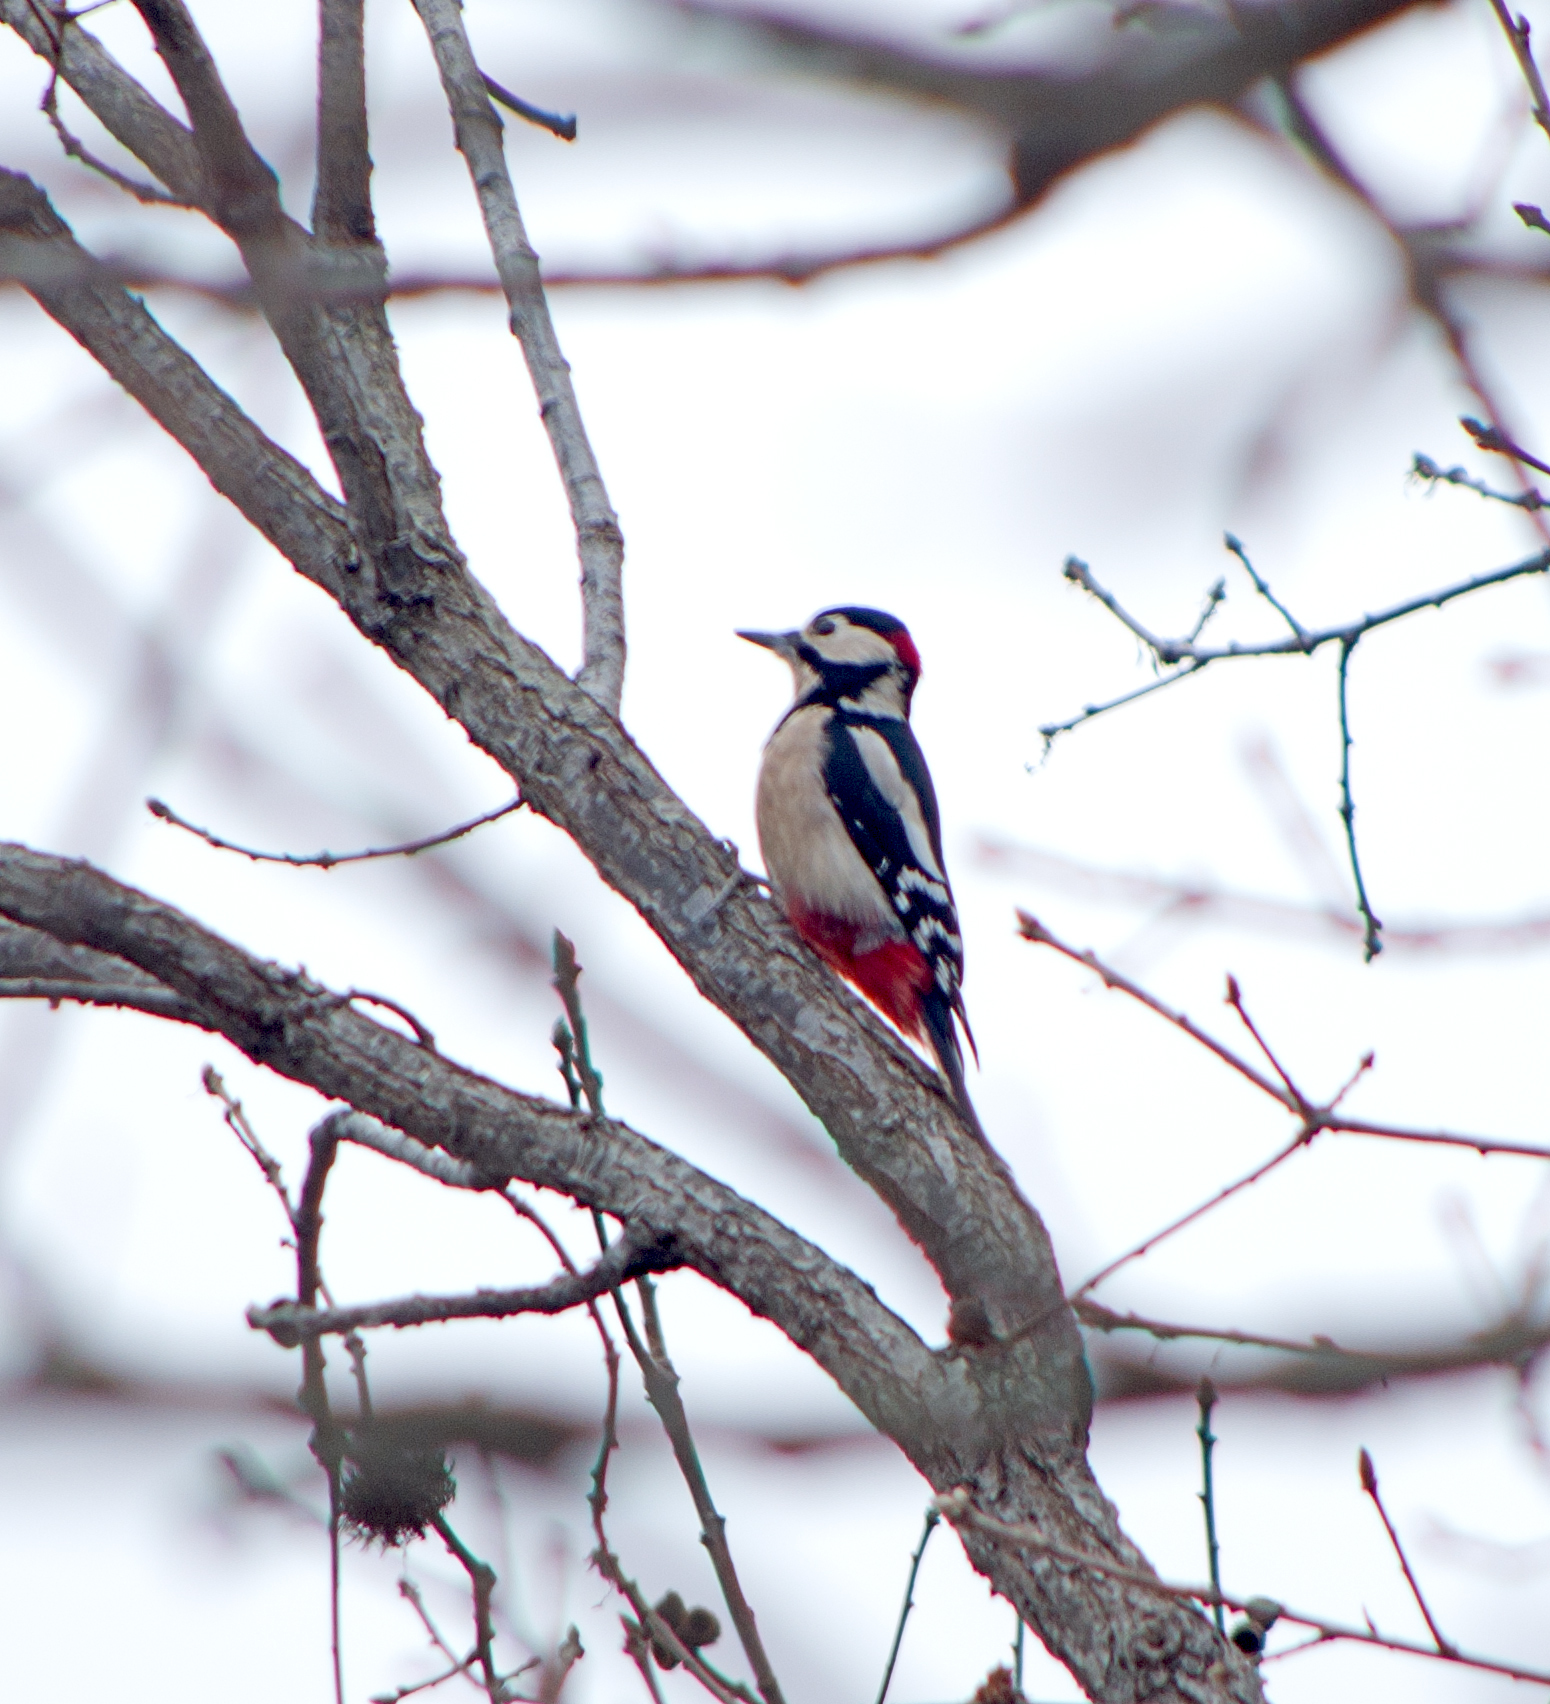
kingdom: Animalia
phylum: Chordata
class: Aves
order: Piciformes
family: Picidae
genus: Dendrocopos
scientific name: Dendrocopos major
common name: Great spotted woodpecker
